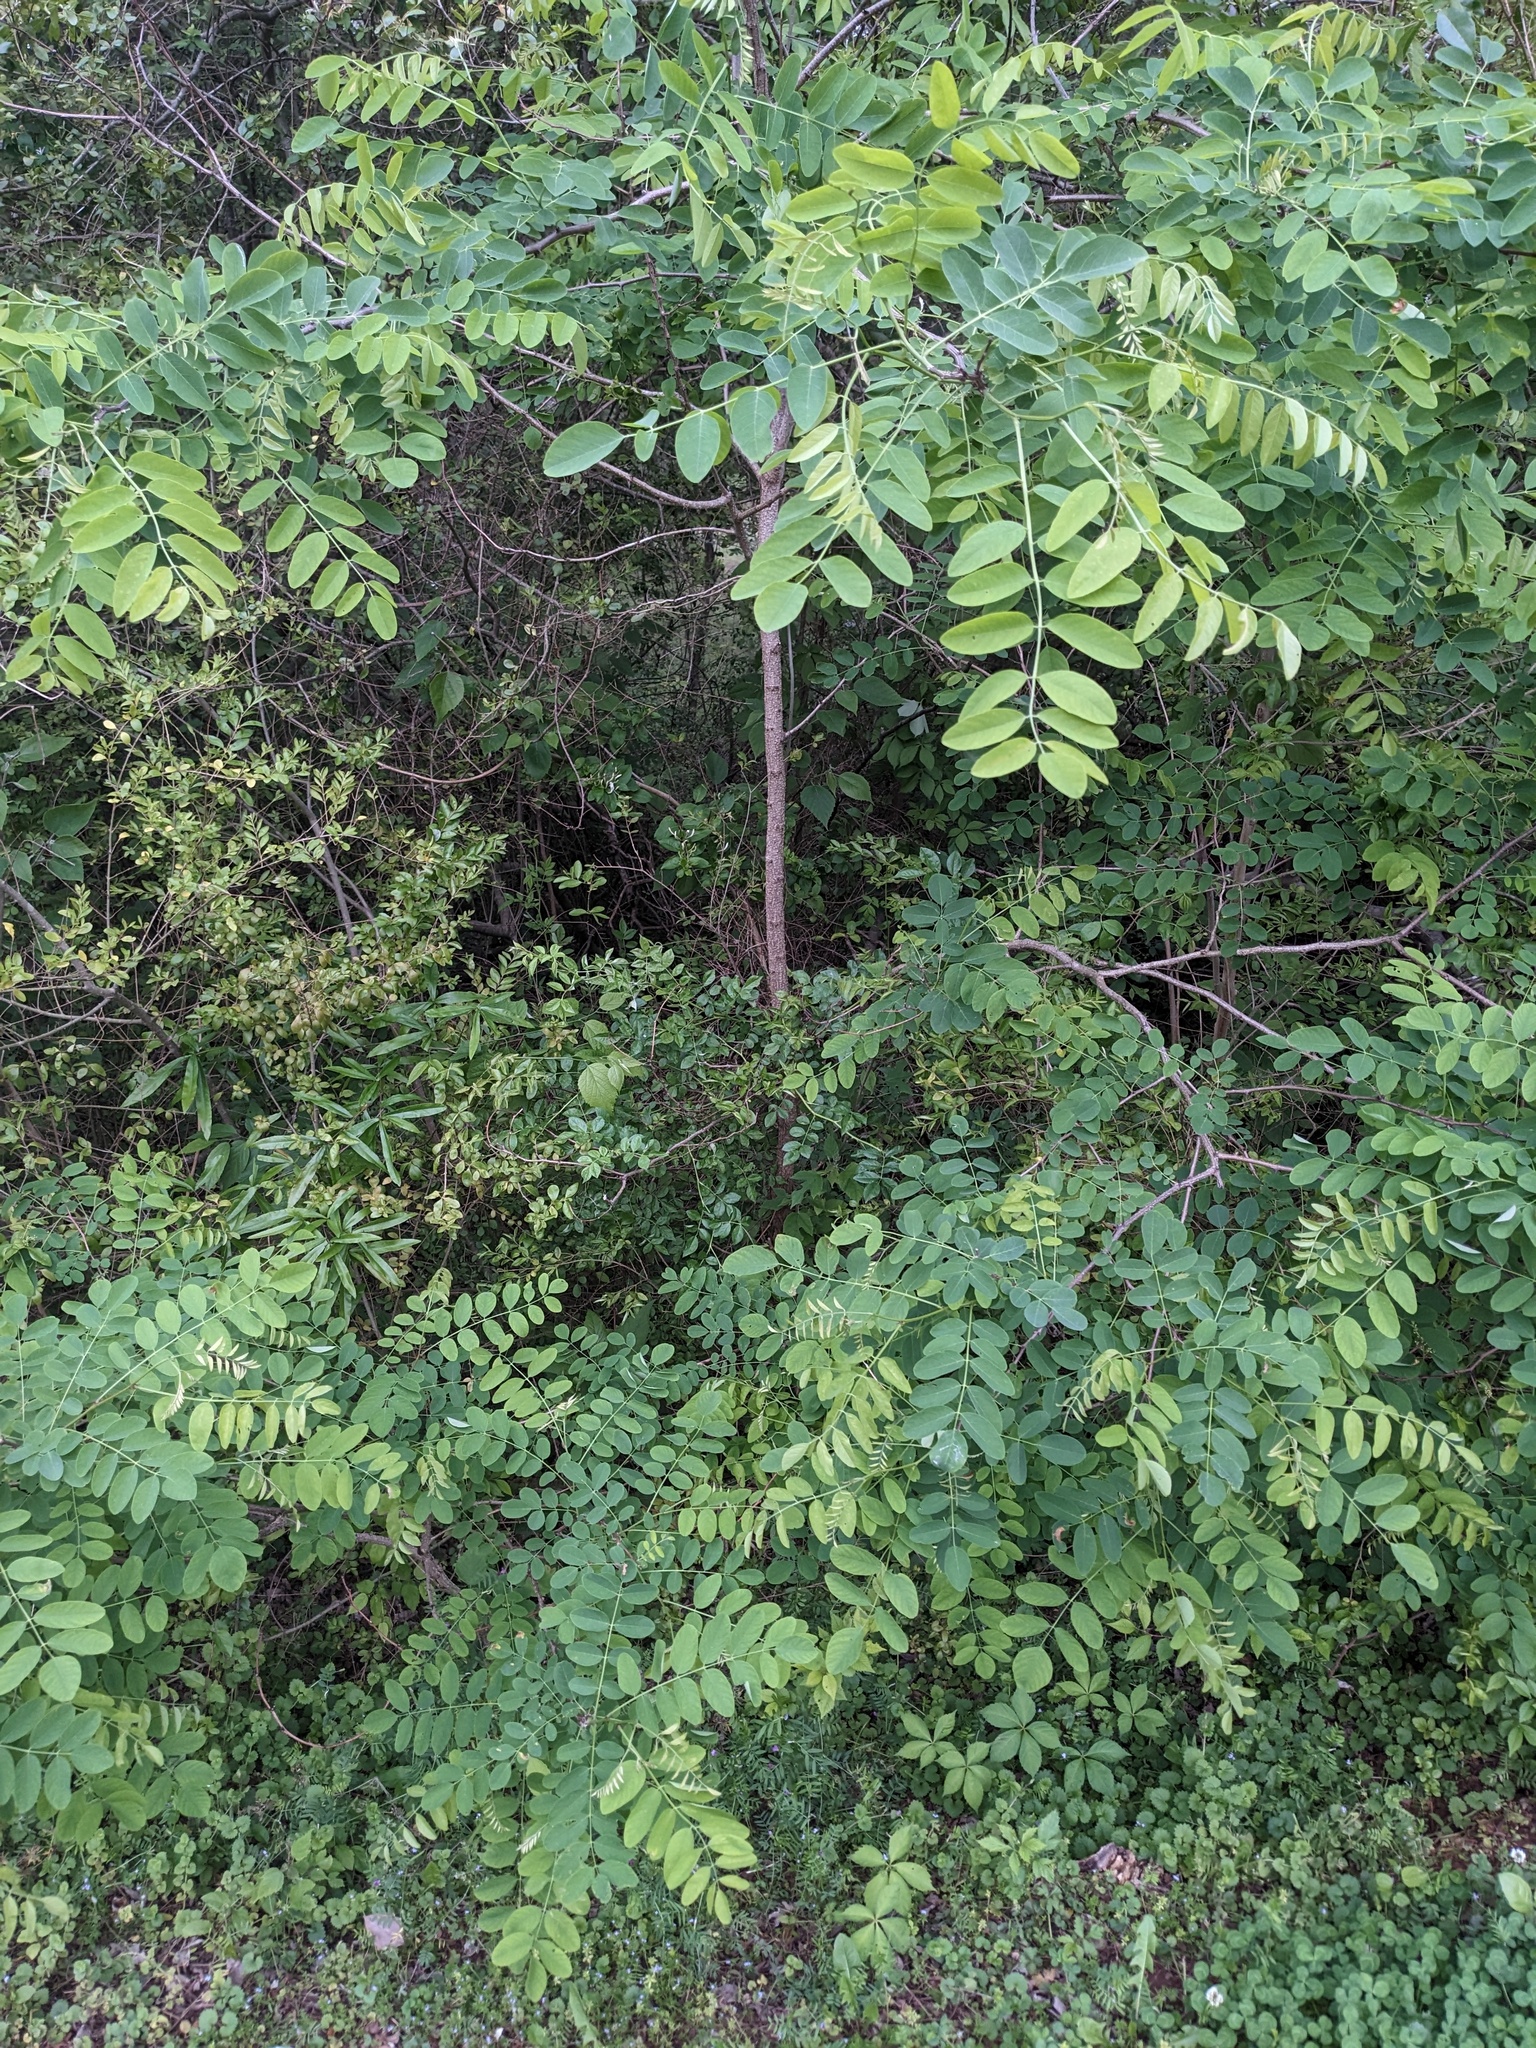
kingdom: Plantae
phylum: Tracheophyta
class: Magnoliopsida
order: Fabales
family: Fabaceae
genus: Robinia
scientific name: Robinia pseudoacacia
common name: Black locust
